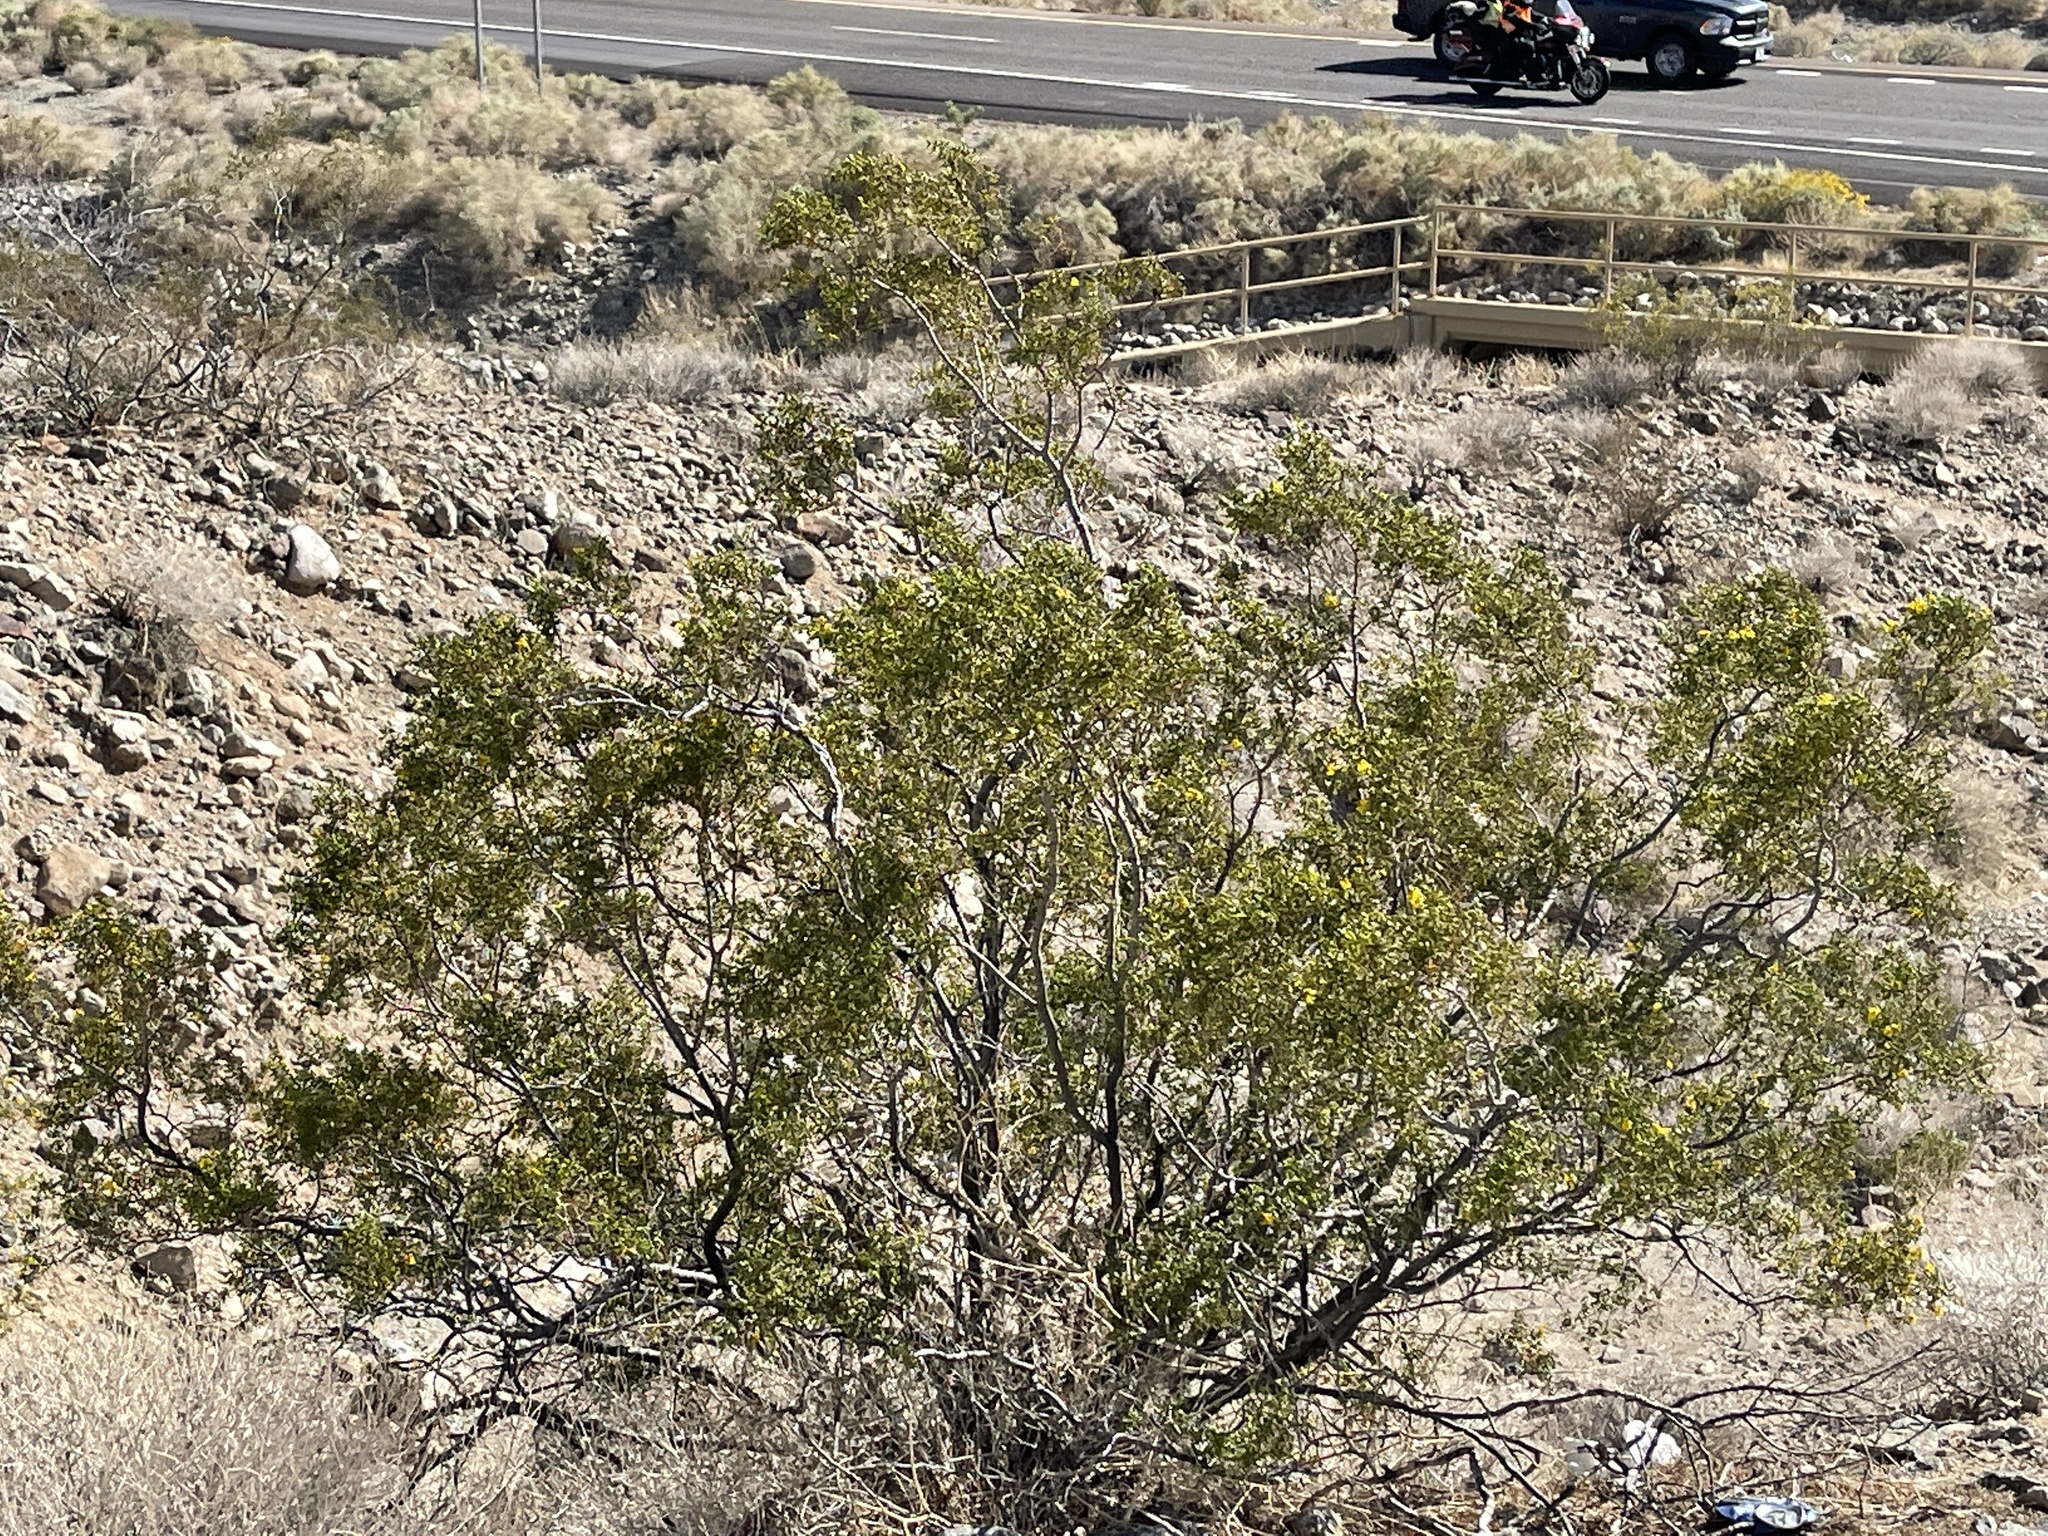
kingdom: Plantae
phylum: Tracheophyta
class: Magnoliopsida
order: Zygophyllales
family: Zygophyllaceae
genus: Larrea
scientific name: Larrea tridentata
